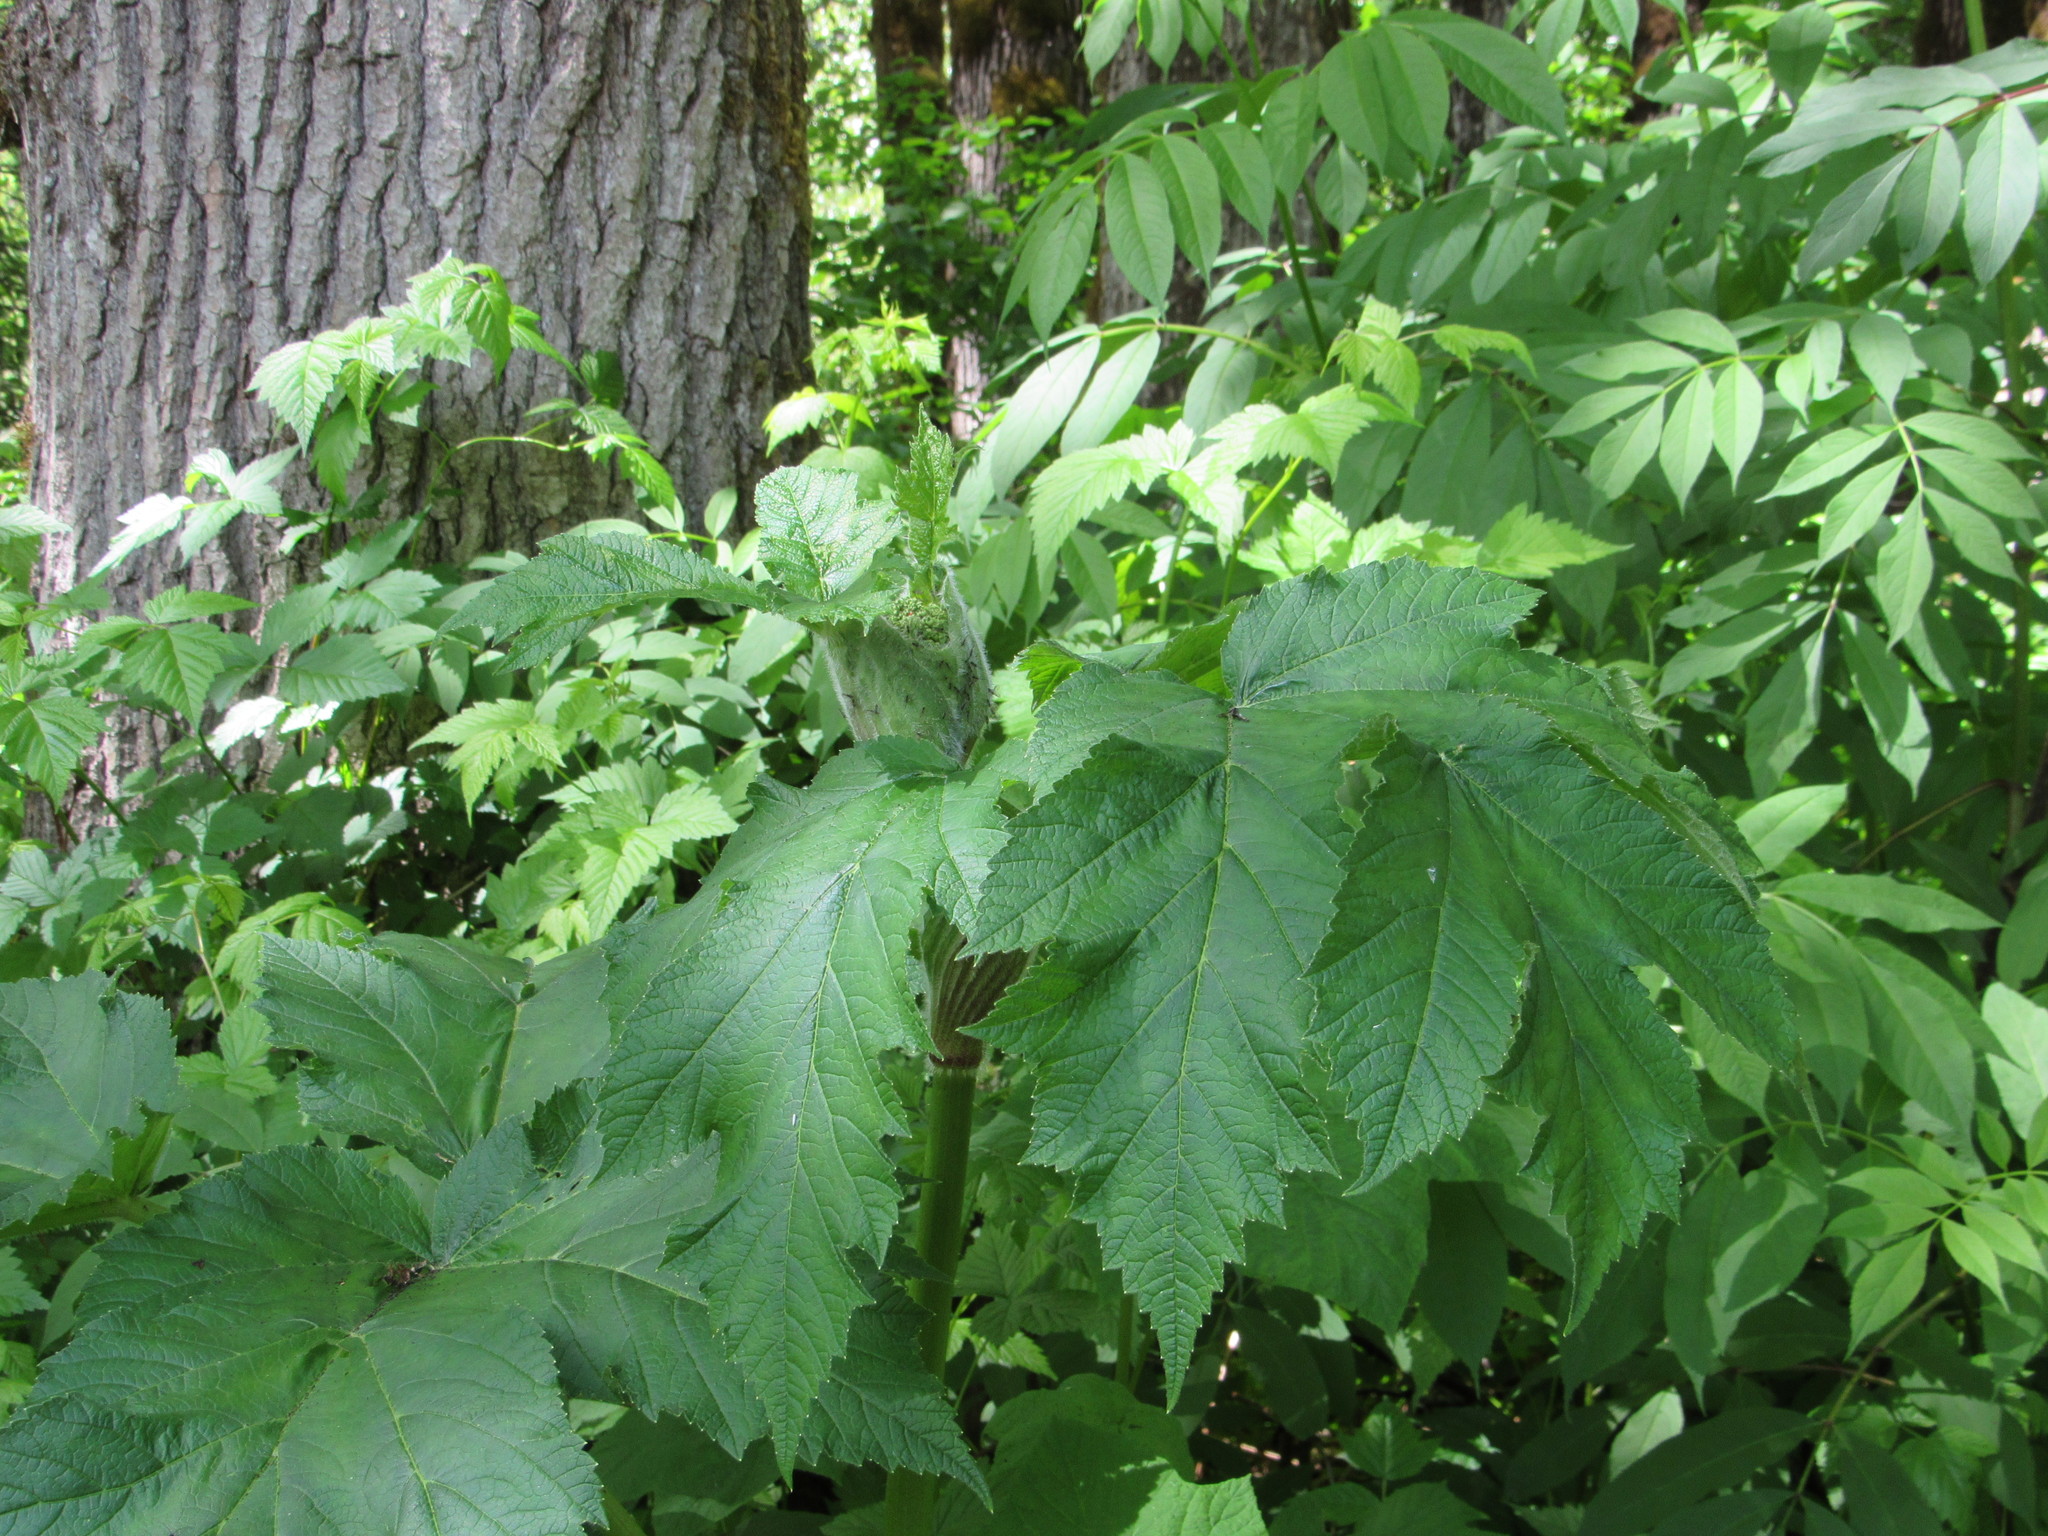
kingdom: Plantae
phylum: Tracheophyta
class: Magnoliopsida
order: Apiales
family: Apiaceae
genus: Heracleum
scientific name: Heracleum maximum
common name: American cow parsnip
